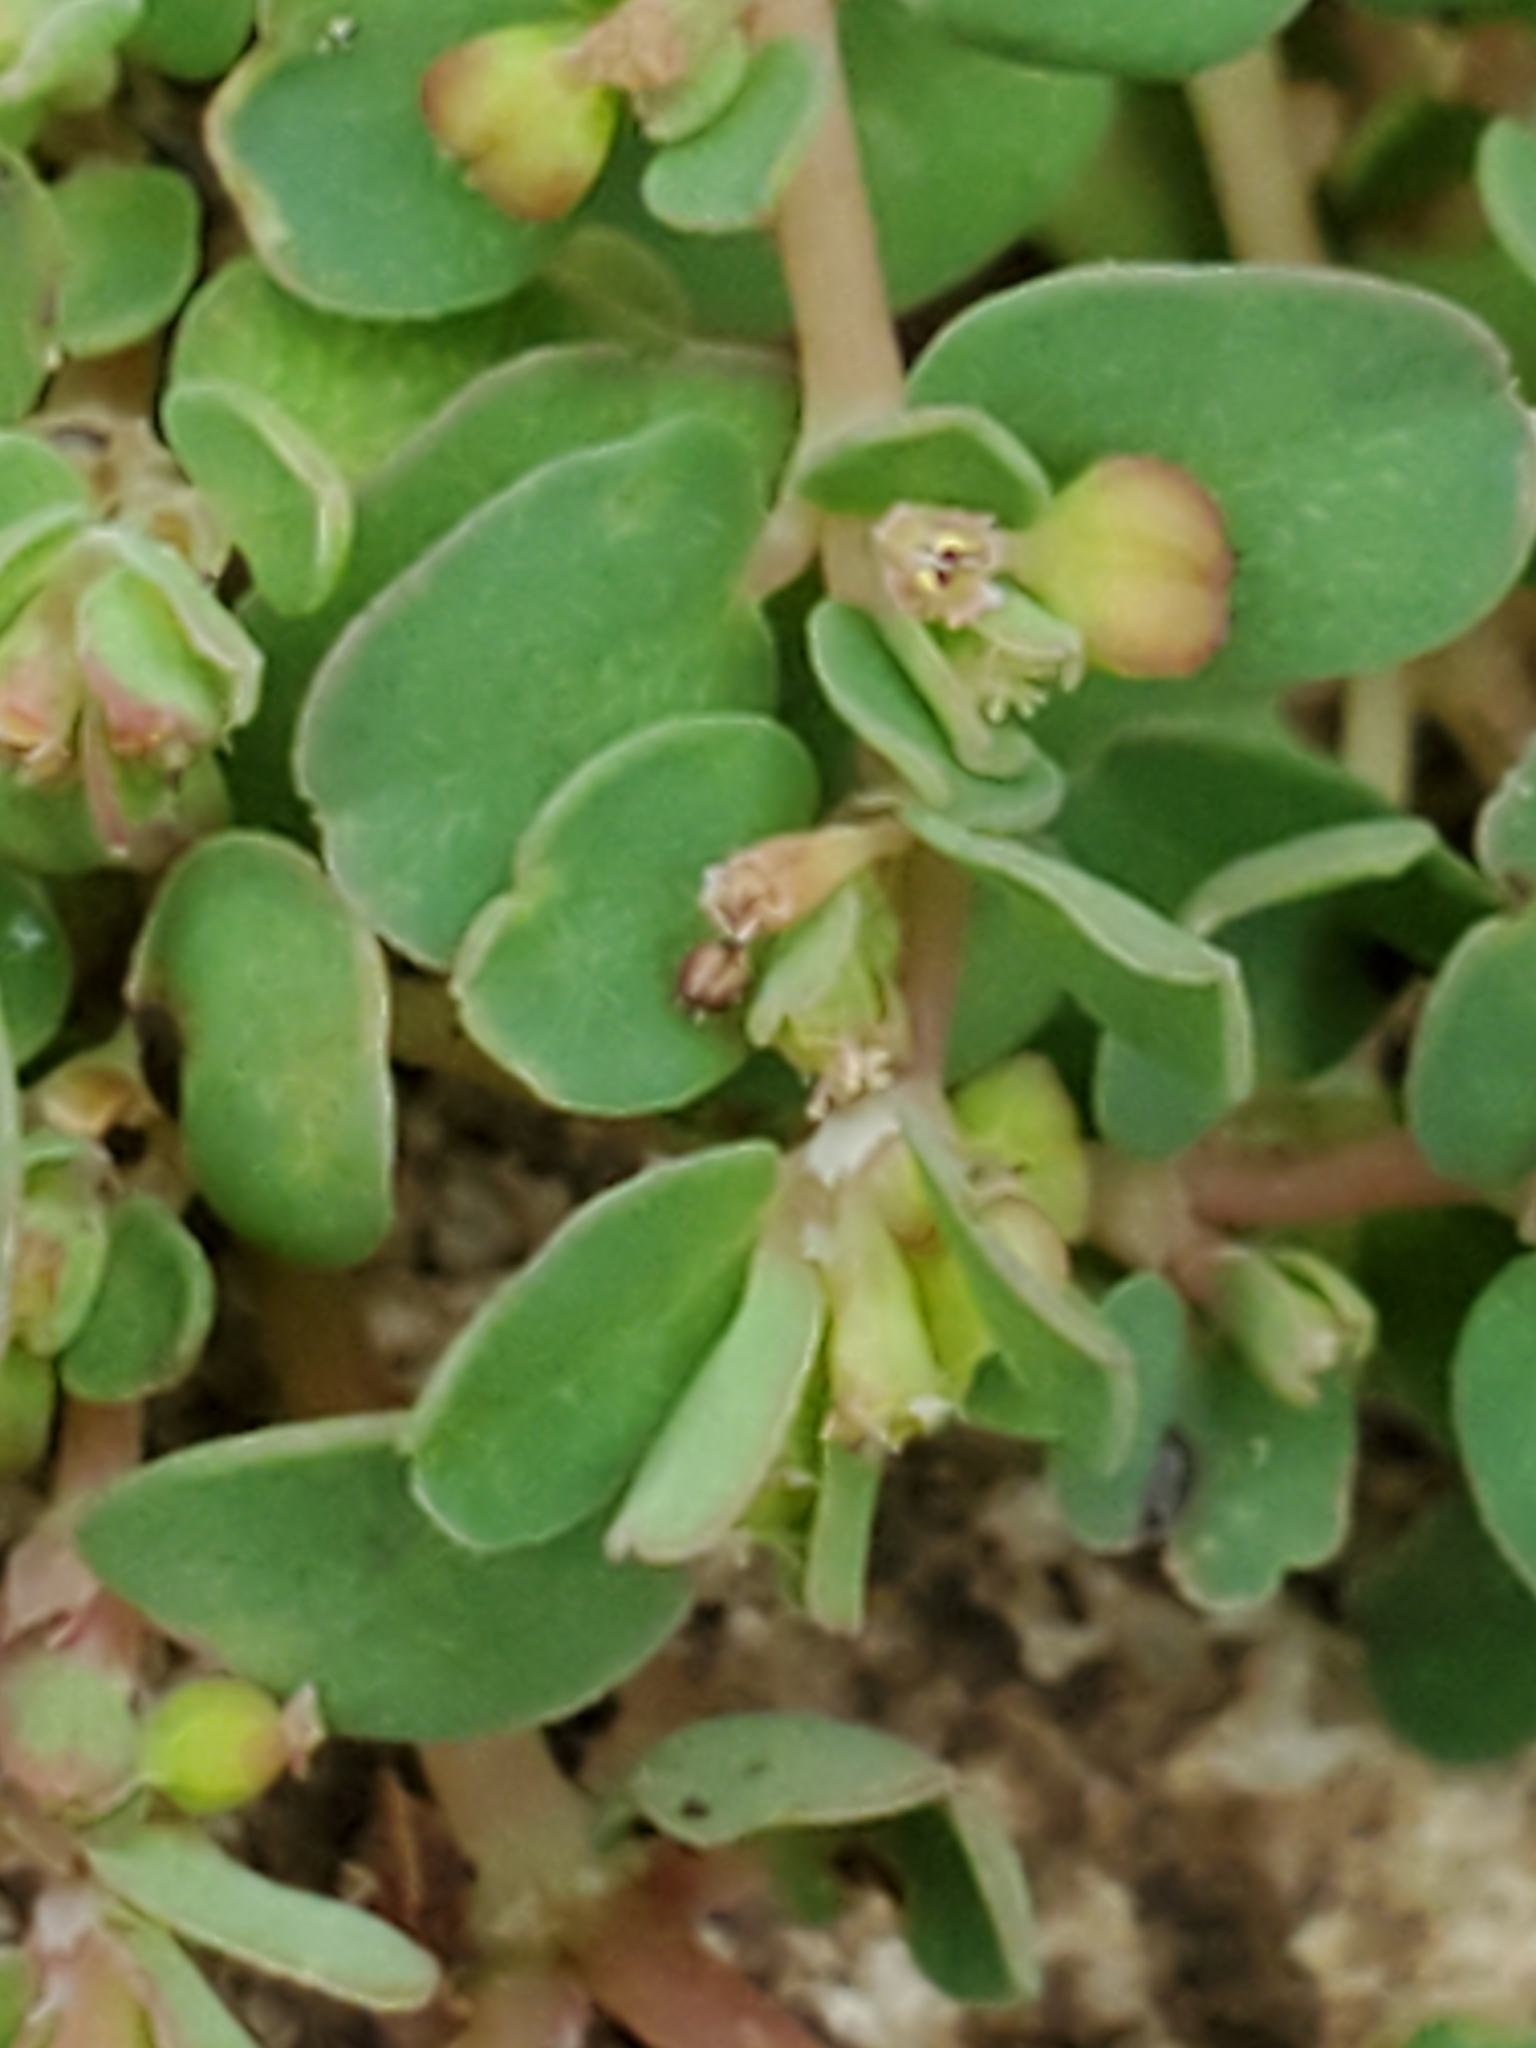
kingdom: Plantae
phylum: Tracheophyta
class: Magnoliopsida
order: Malpighiales
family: Euphorbiaceae
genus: Euphorbia
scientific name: Euphorbia serpens
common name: Matted sandmat
